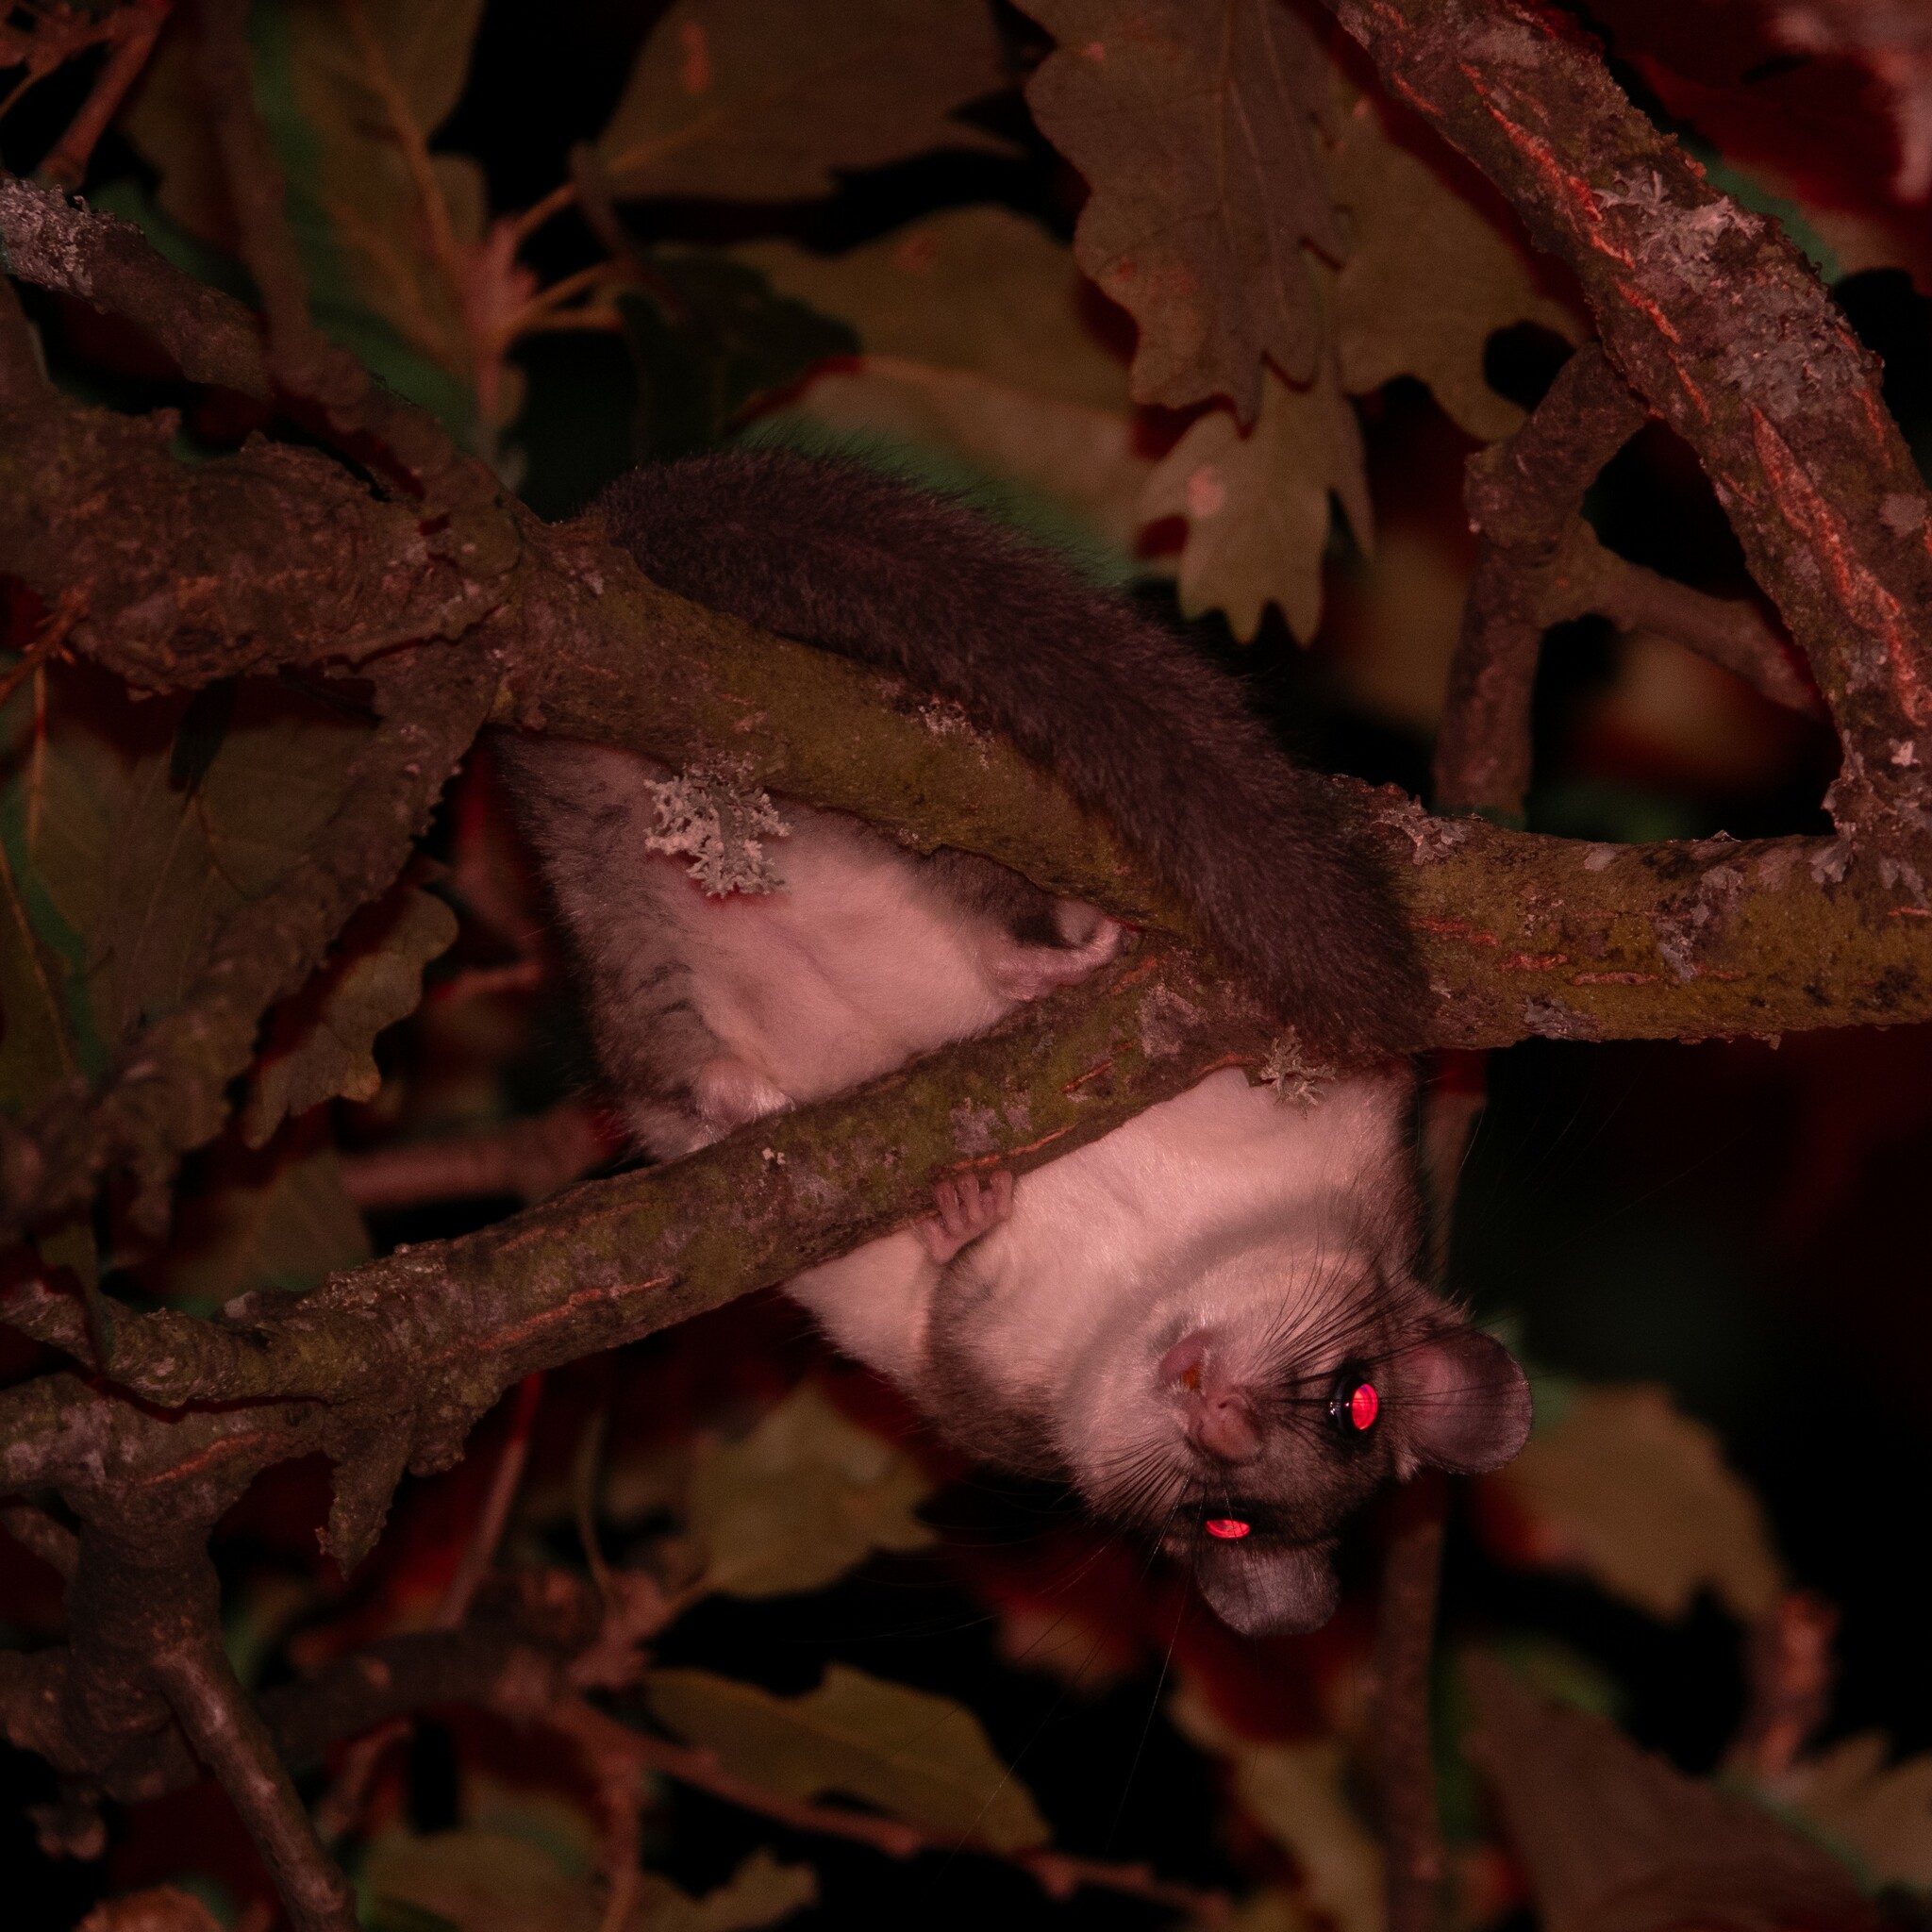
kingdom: Animalia
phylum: Chordata
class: Mammalia
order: Rodentia
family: Gliridae
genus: Glis
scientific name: Glis glis
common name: Fat dormouse
